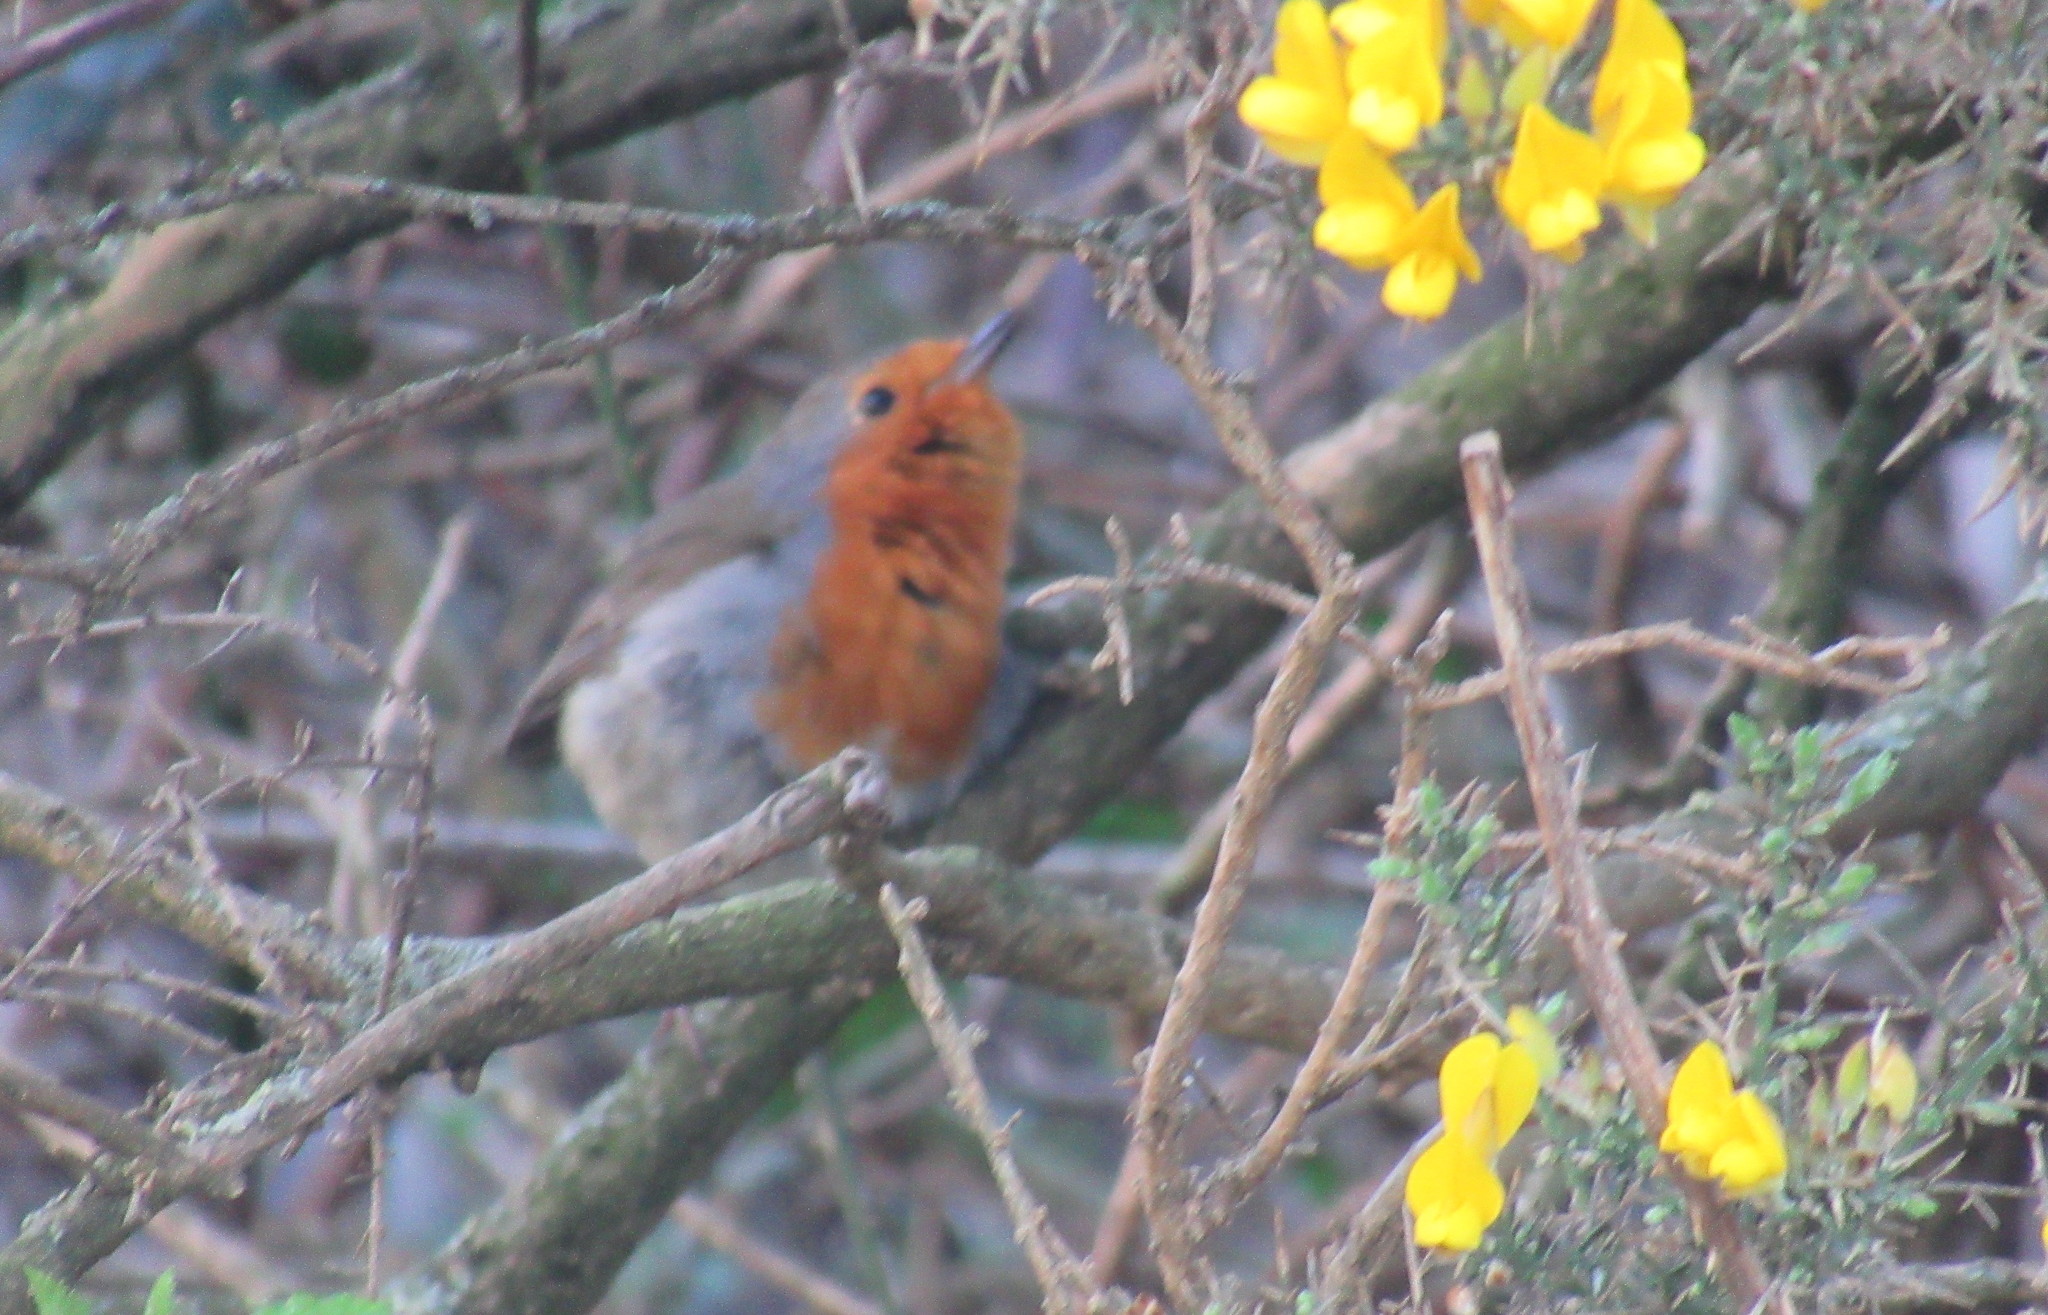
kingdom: Animalia
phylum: Chordata
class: Aves
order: Passeriformes
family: Muscicapidae
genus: Erithacus
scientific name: Erithacus rubecula
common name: European robin
